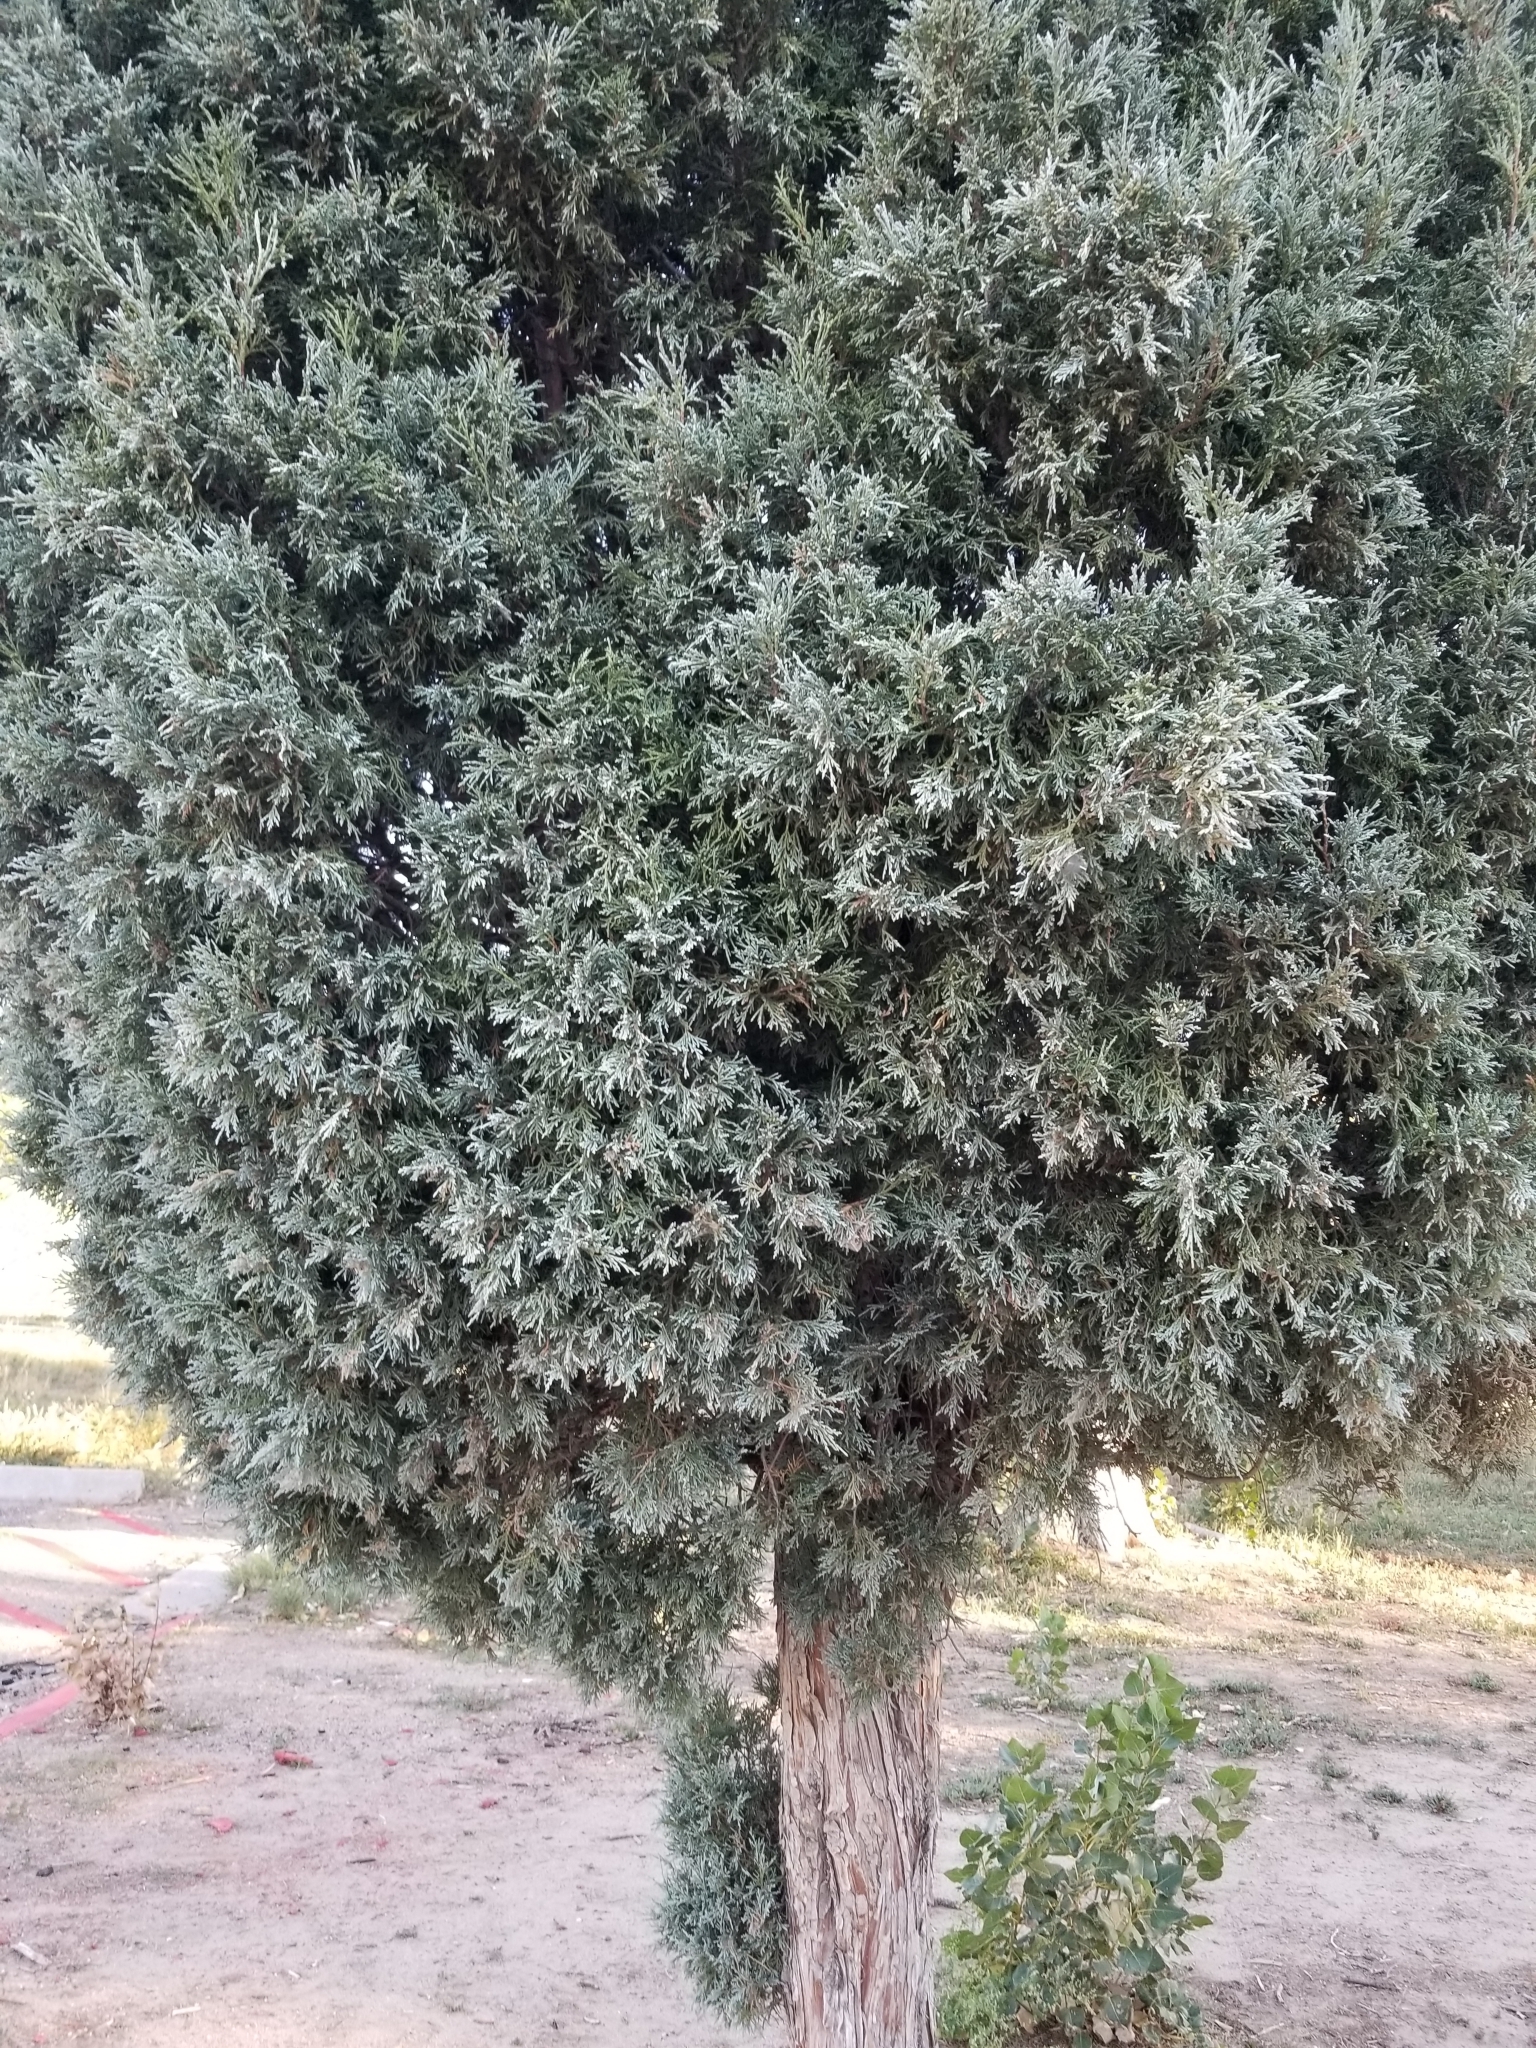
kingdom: Plantae
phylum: Tracheophyta
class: Pinopsida
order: Pinales
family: Cupressaceae
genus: Juniperus
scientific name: Juniperus scopulorum
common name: Rocky mountain juniper
